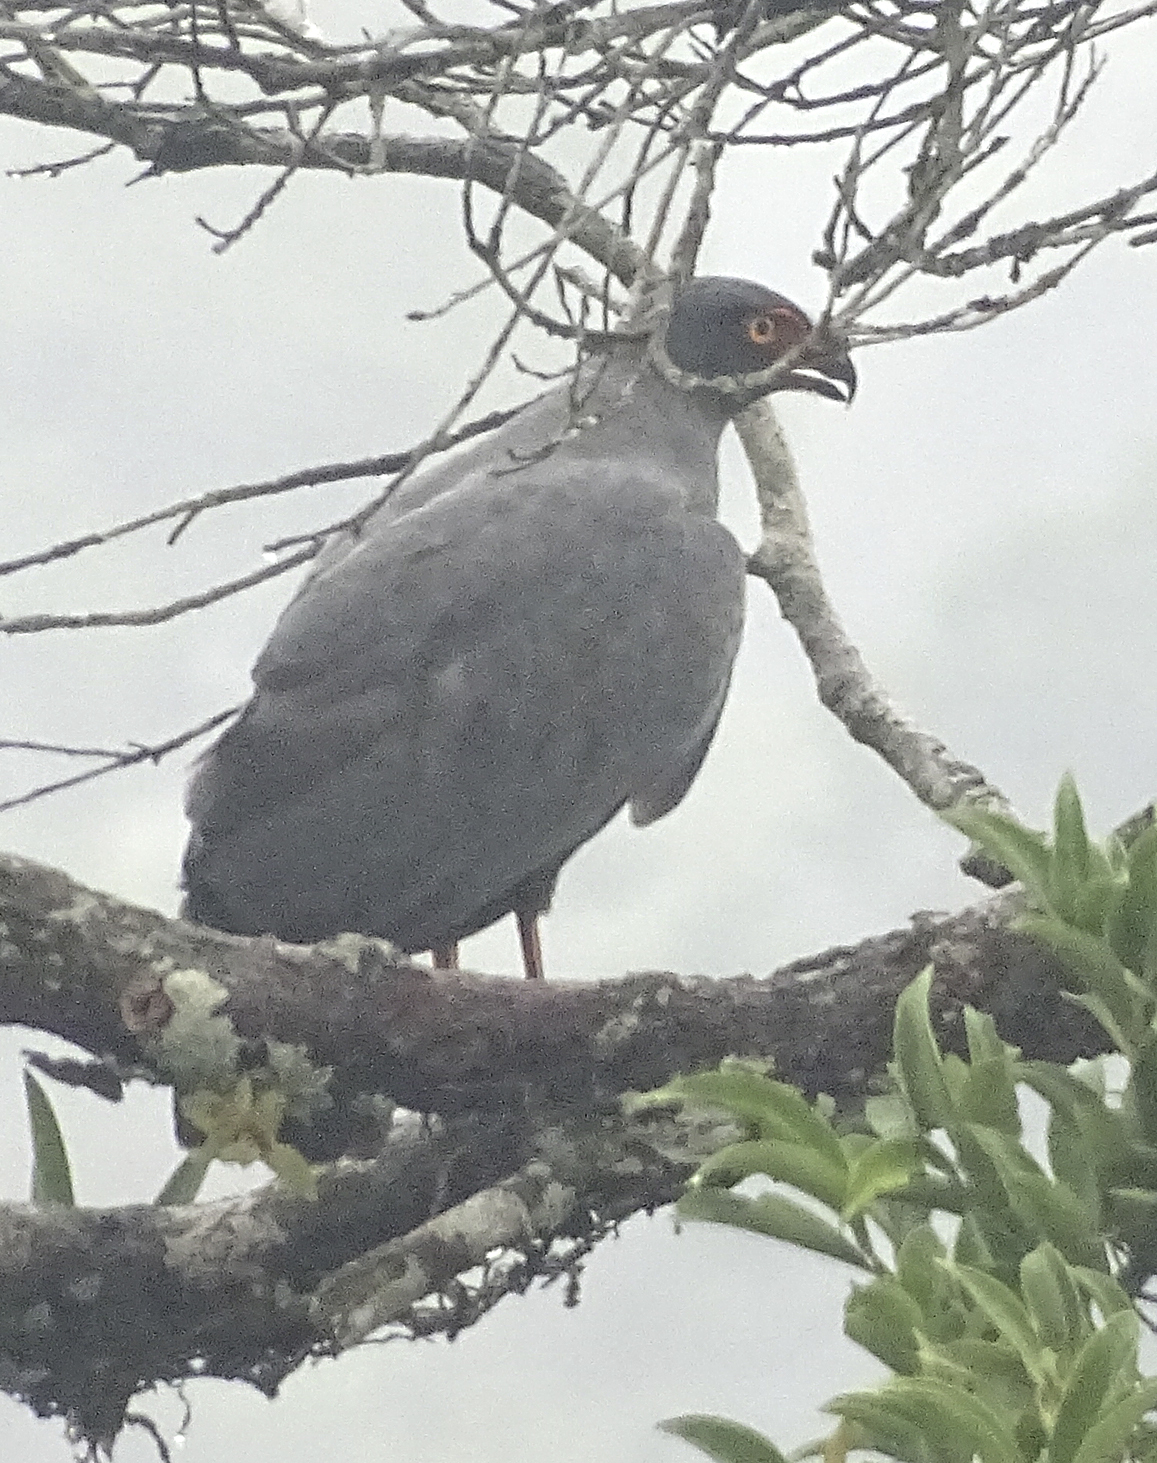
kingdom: Animalia
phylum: Chordata
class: Aves
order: Accipitriformes
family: Accipitridae
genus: Leucopternis
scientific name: Leucopternis schistaceus
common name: Slate-colored hawk
